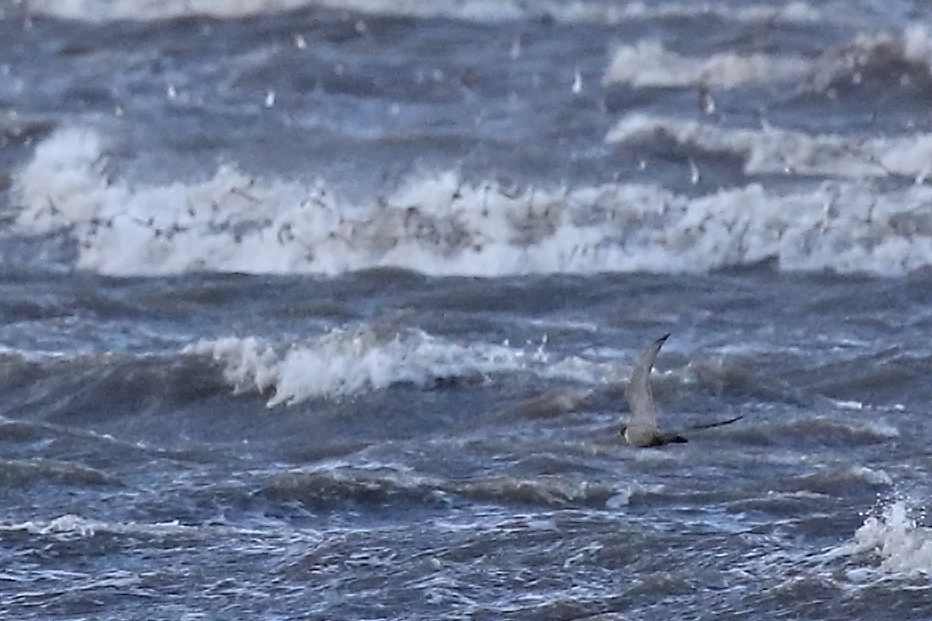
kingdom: Animalia
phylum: Chordata
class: Aves
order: Falconiformes
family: Falconidae
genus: Falco
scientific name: Falco peregrinus
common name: Peregrine falcon
